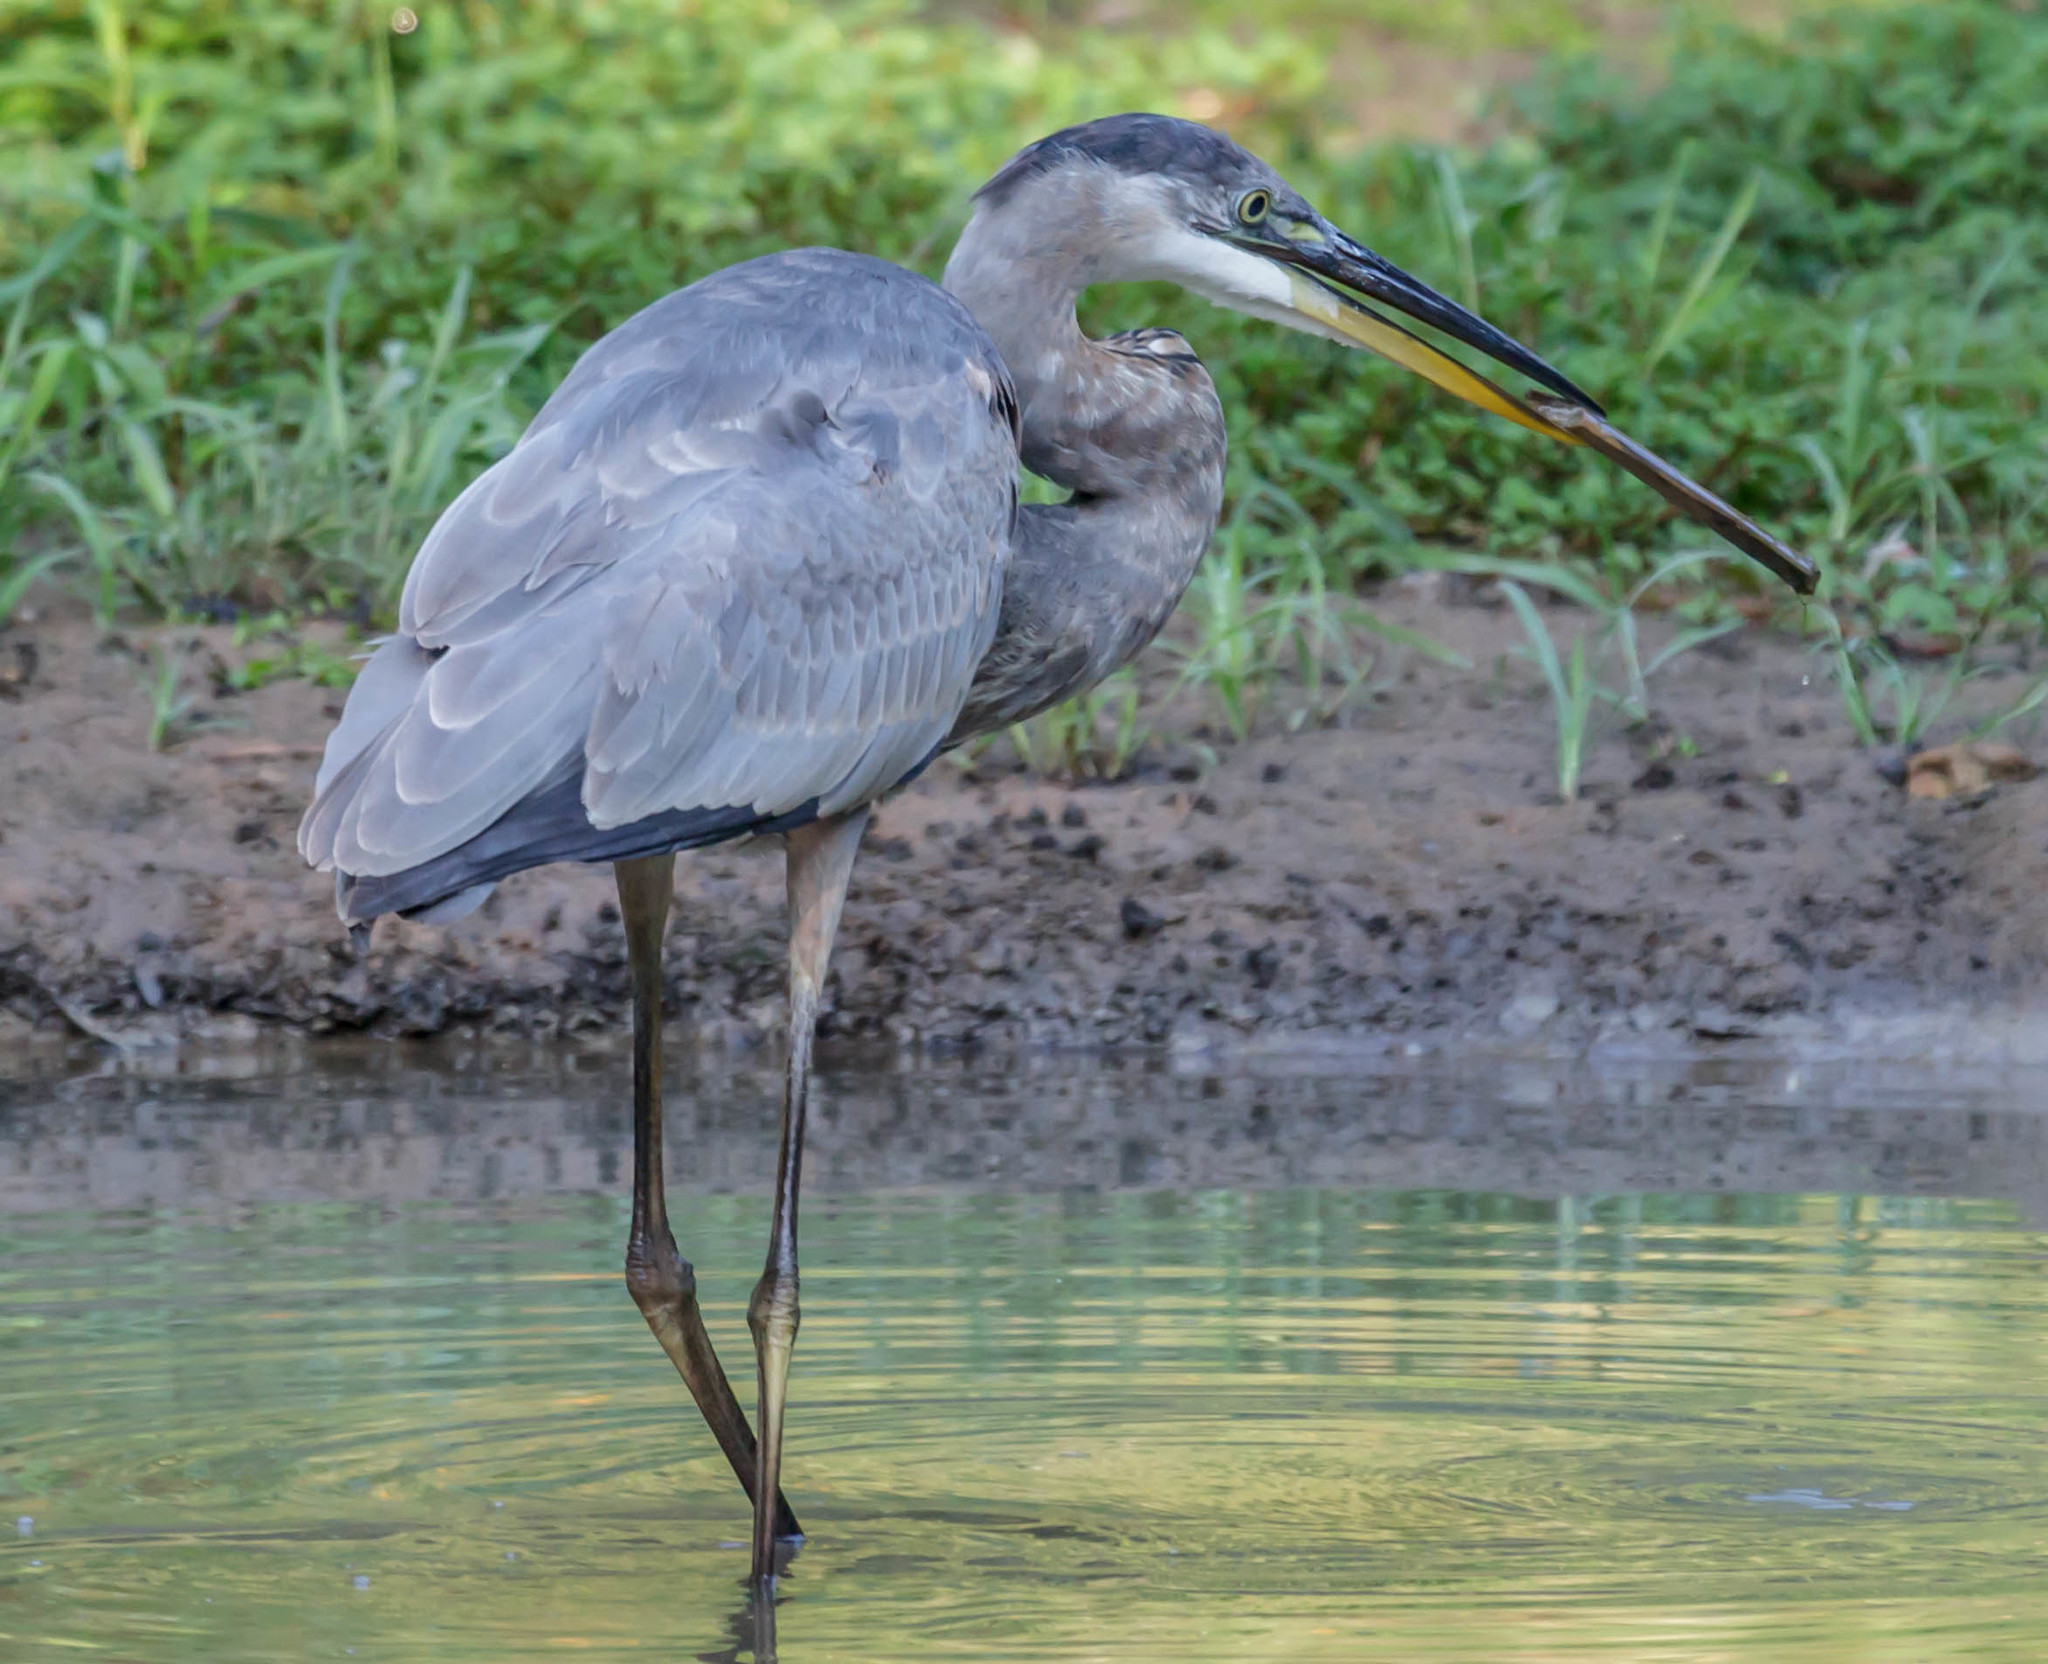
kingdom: Animalia
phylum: Chordata
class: Aves
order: Pelecaniformes
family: Ardeidae
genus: Ardea
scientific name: Ardea herodias
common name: Great blue heron
